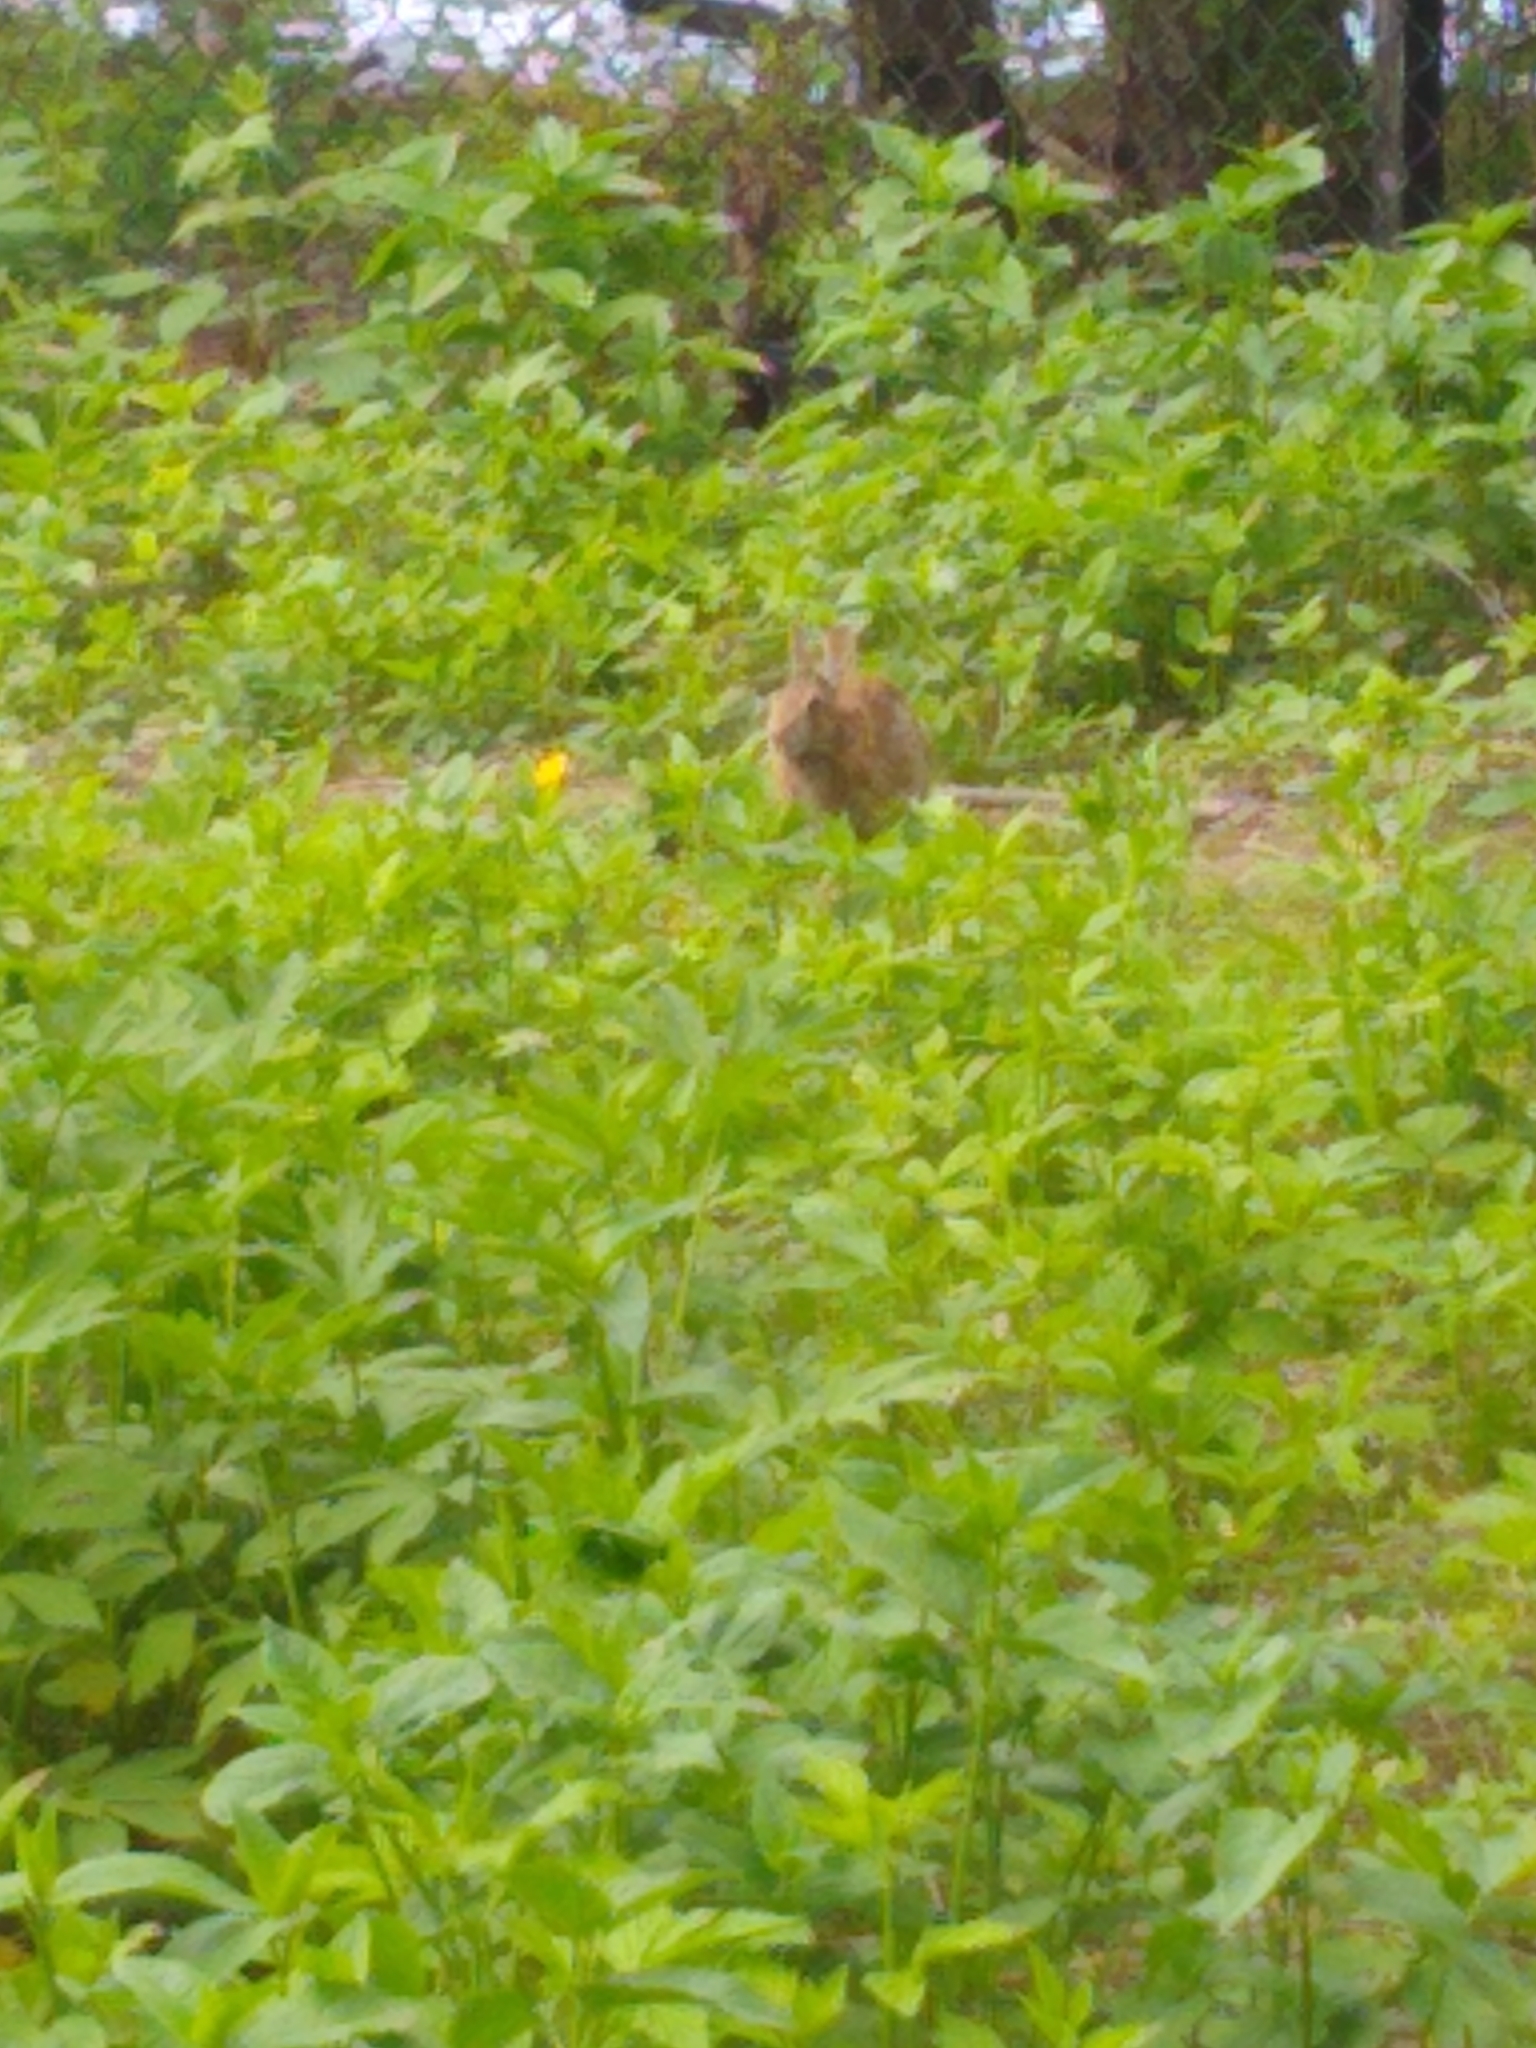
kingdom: Animalia
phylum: Chordata
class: Mammalia
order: Lagomorpha
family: Leporidae
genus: Sylvilagus
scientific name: Sylvilagus floridanus
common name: Eastern cottontail
